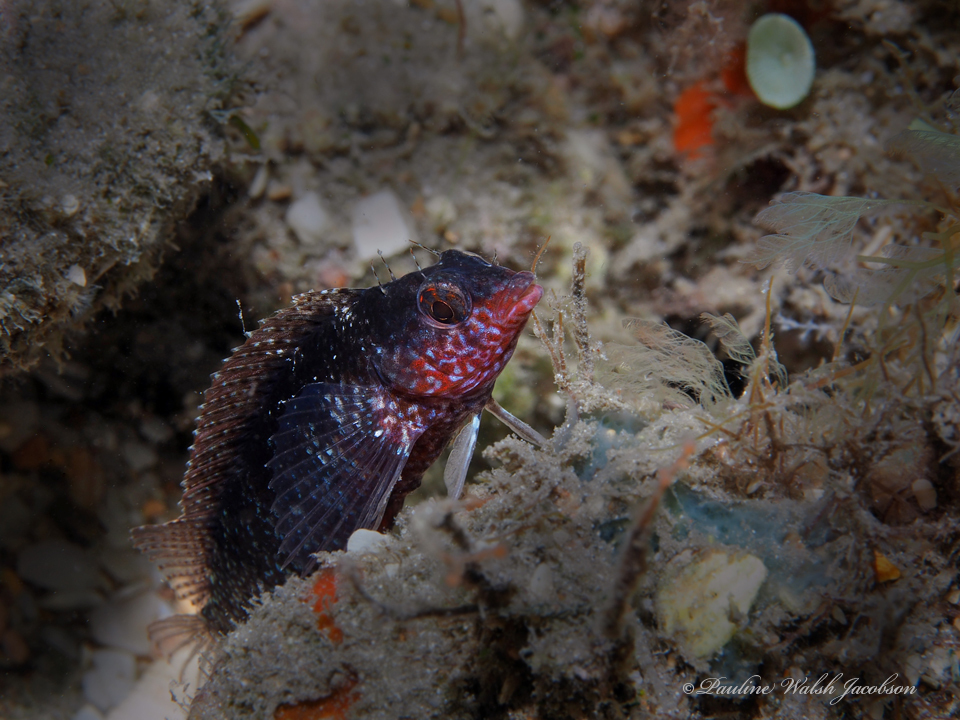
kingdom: Animalia
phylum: Chordata
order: Perciformes
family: Labrisomidae
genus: Malacoctenus
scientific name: Malacoctenus macropus
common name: Rosy blenny
